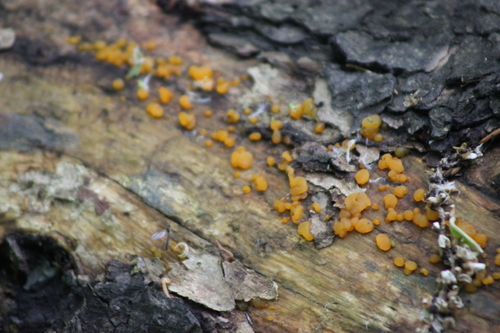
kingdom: Fungi
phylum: Basidiomycota
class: Dacrymycetes
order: Dacrymycetales
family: Dacrymycetaceae
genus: Dacrymyces
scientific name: Dacrymyces chrysospermus
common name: Orange jelly spot
